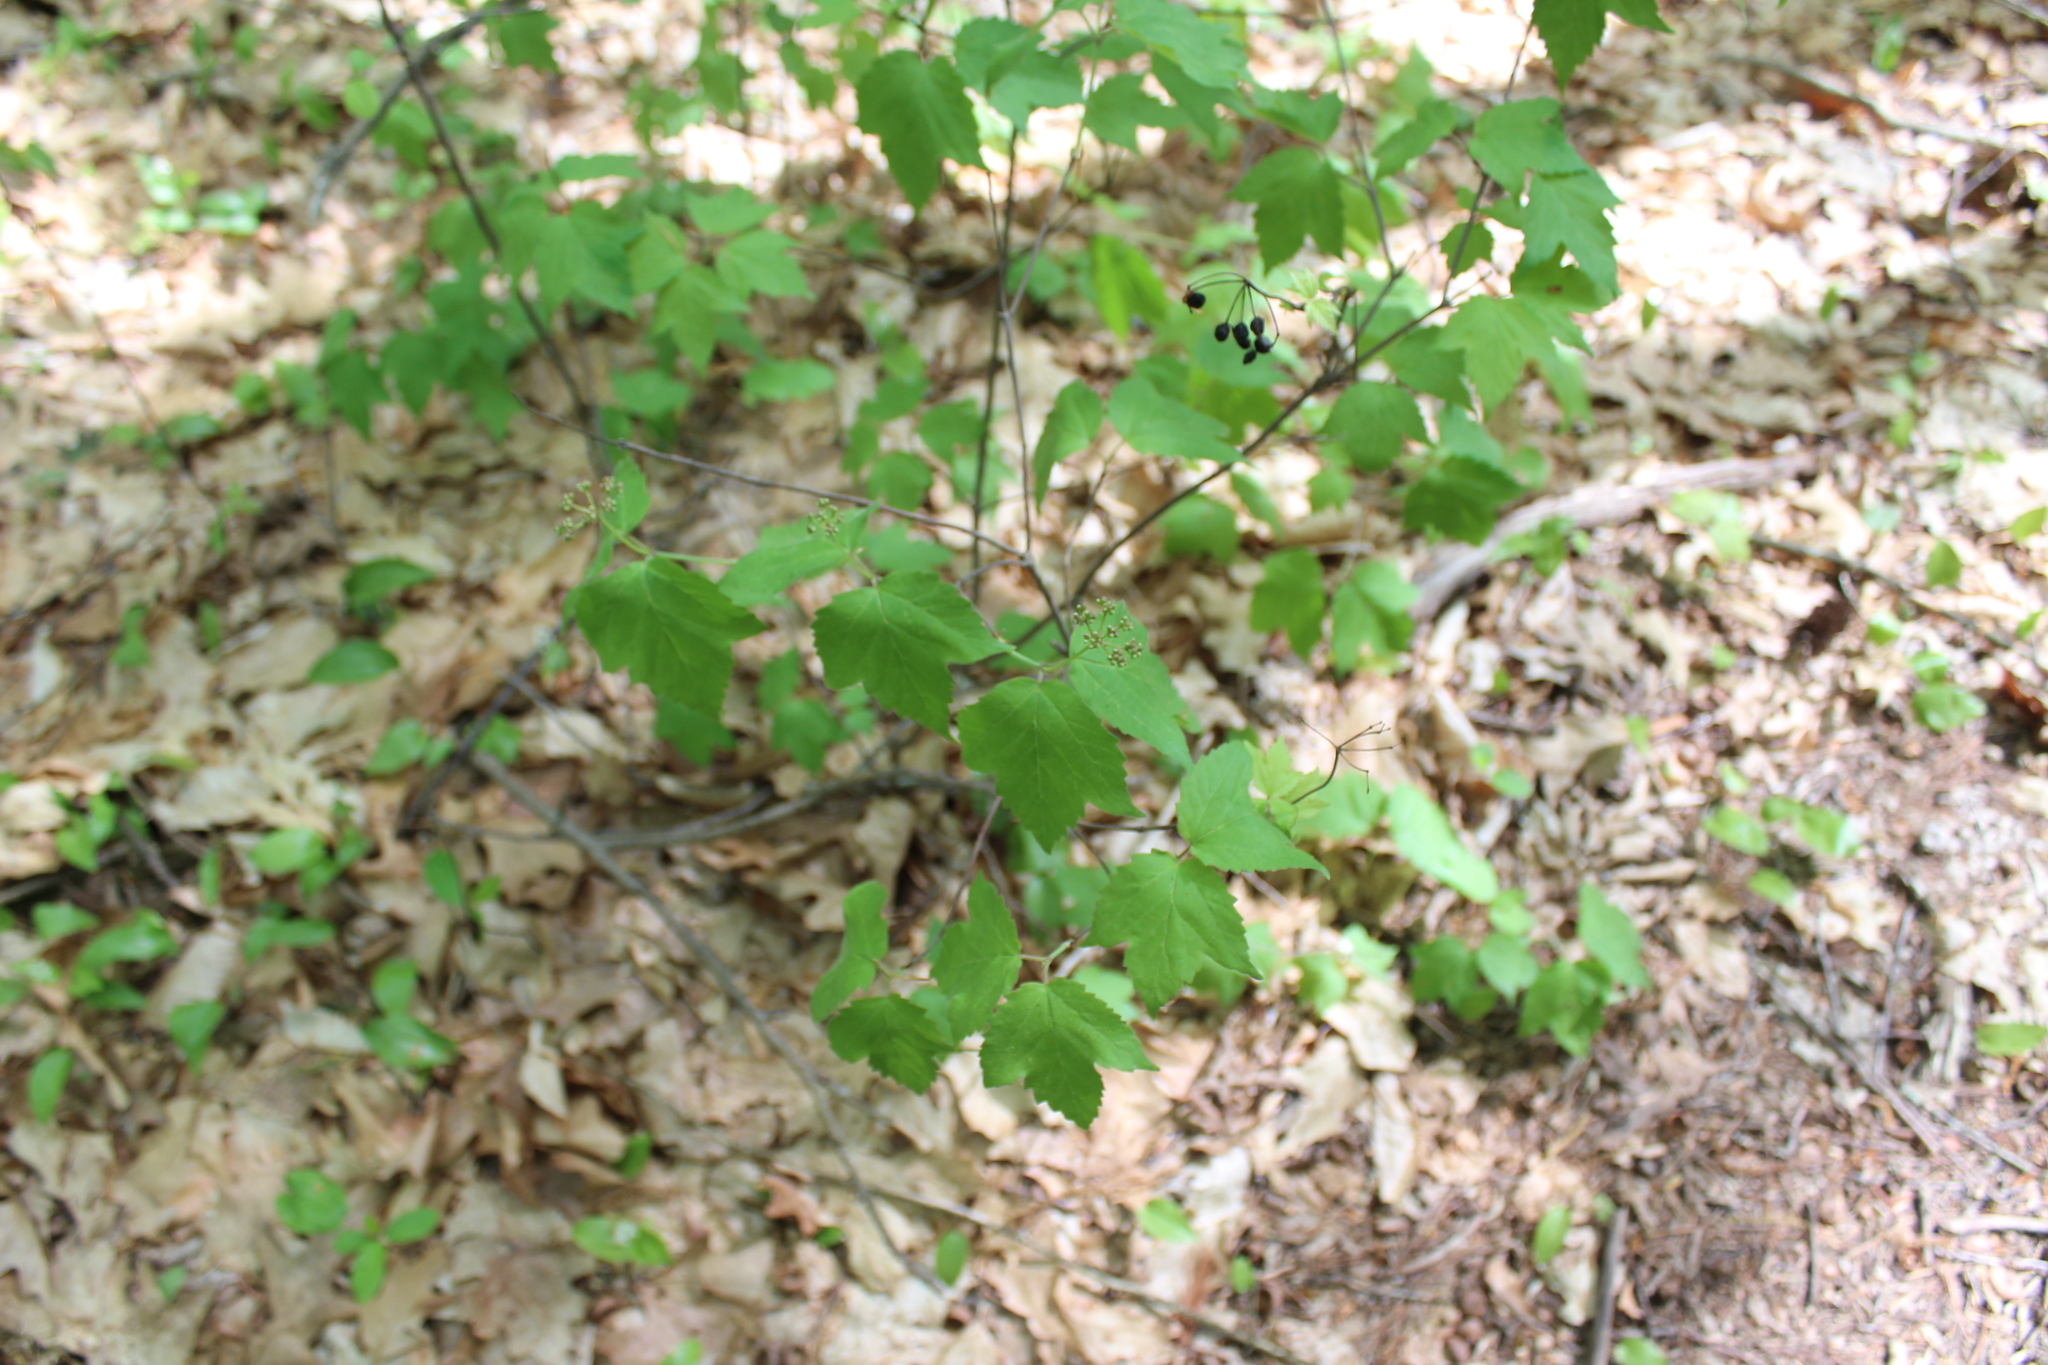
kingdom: Plantae
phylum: Tracheophyta
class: Magnoliopsida
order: Dipsacales
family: Viburnaceae
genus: Viburnum
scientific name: Viburnum acerifolium
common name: Dockmackie
